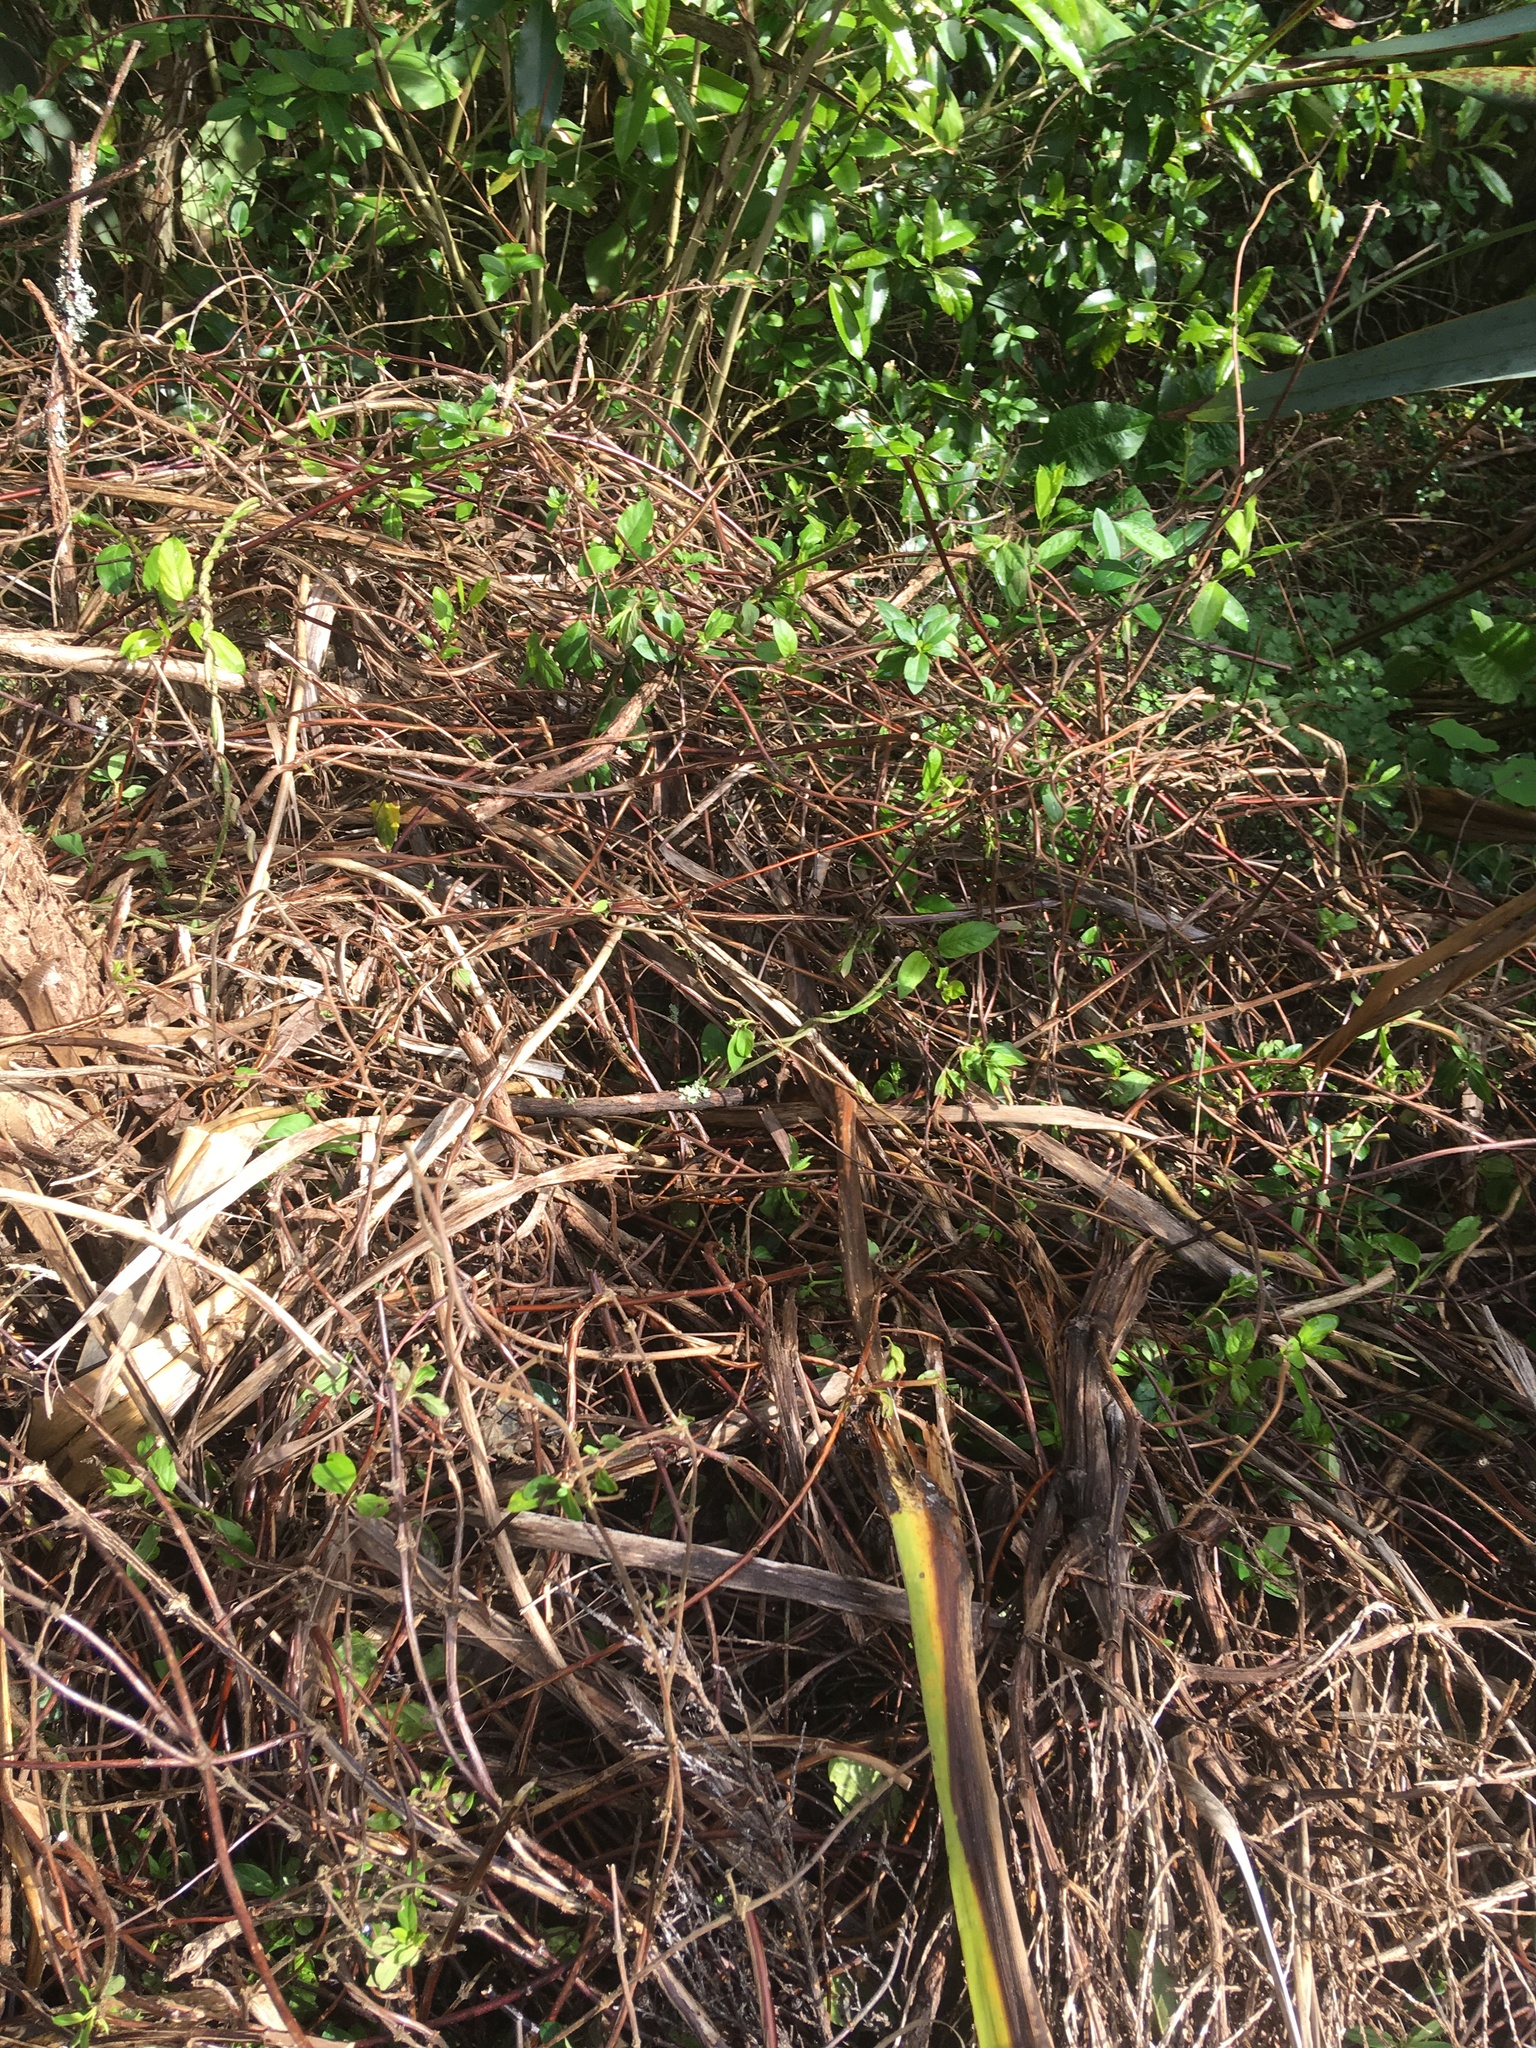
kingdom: Plantae
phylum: Tracheophyta
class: Magnoliopsida
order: Dipsacales
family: Caprifoliaceae
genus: Lonicera
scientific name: Lonicera japonica
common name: Japanese honeysuckle
